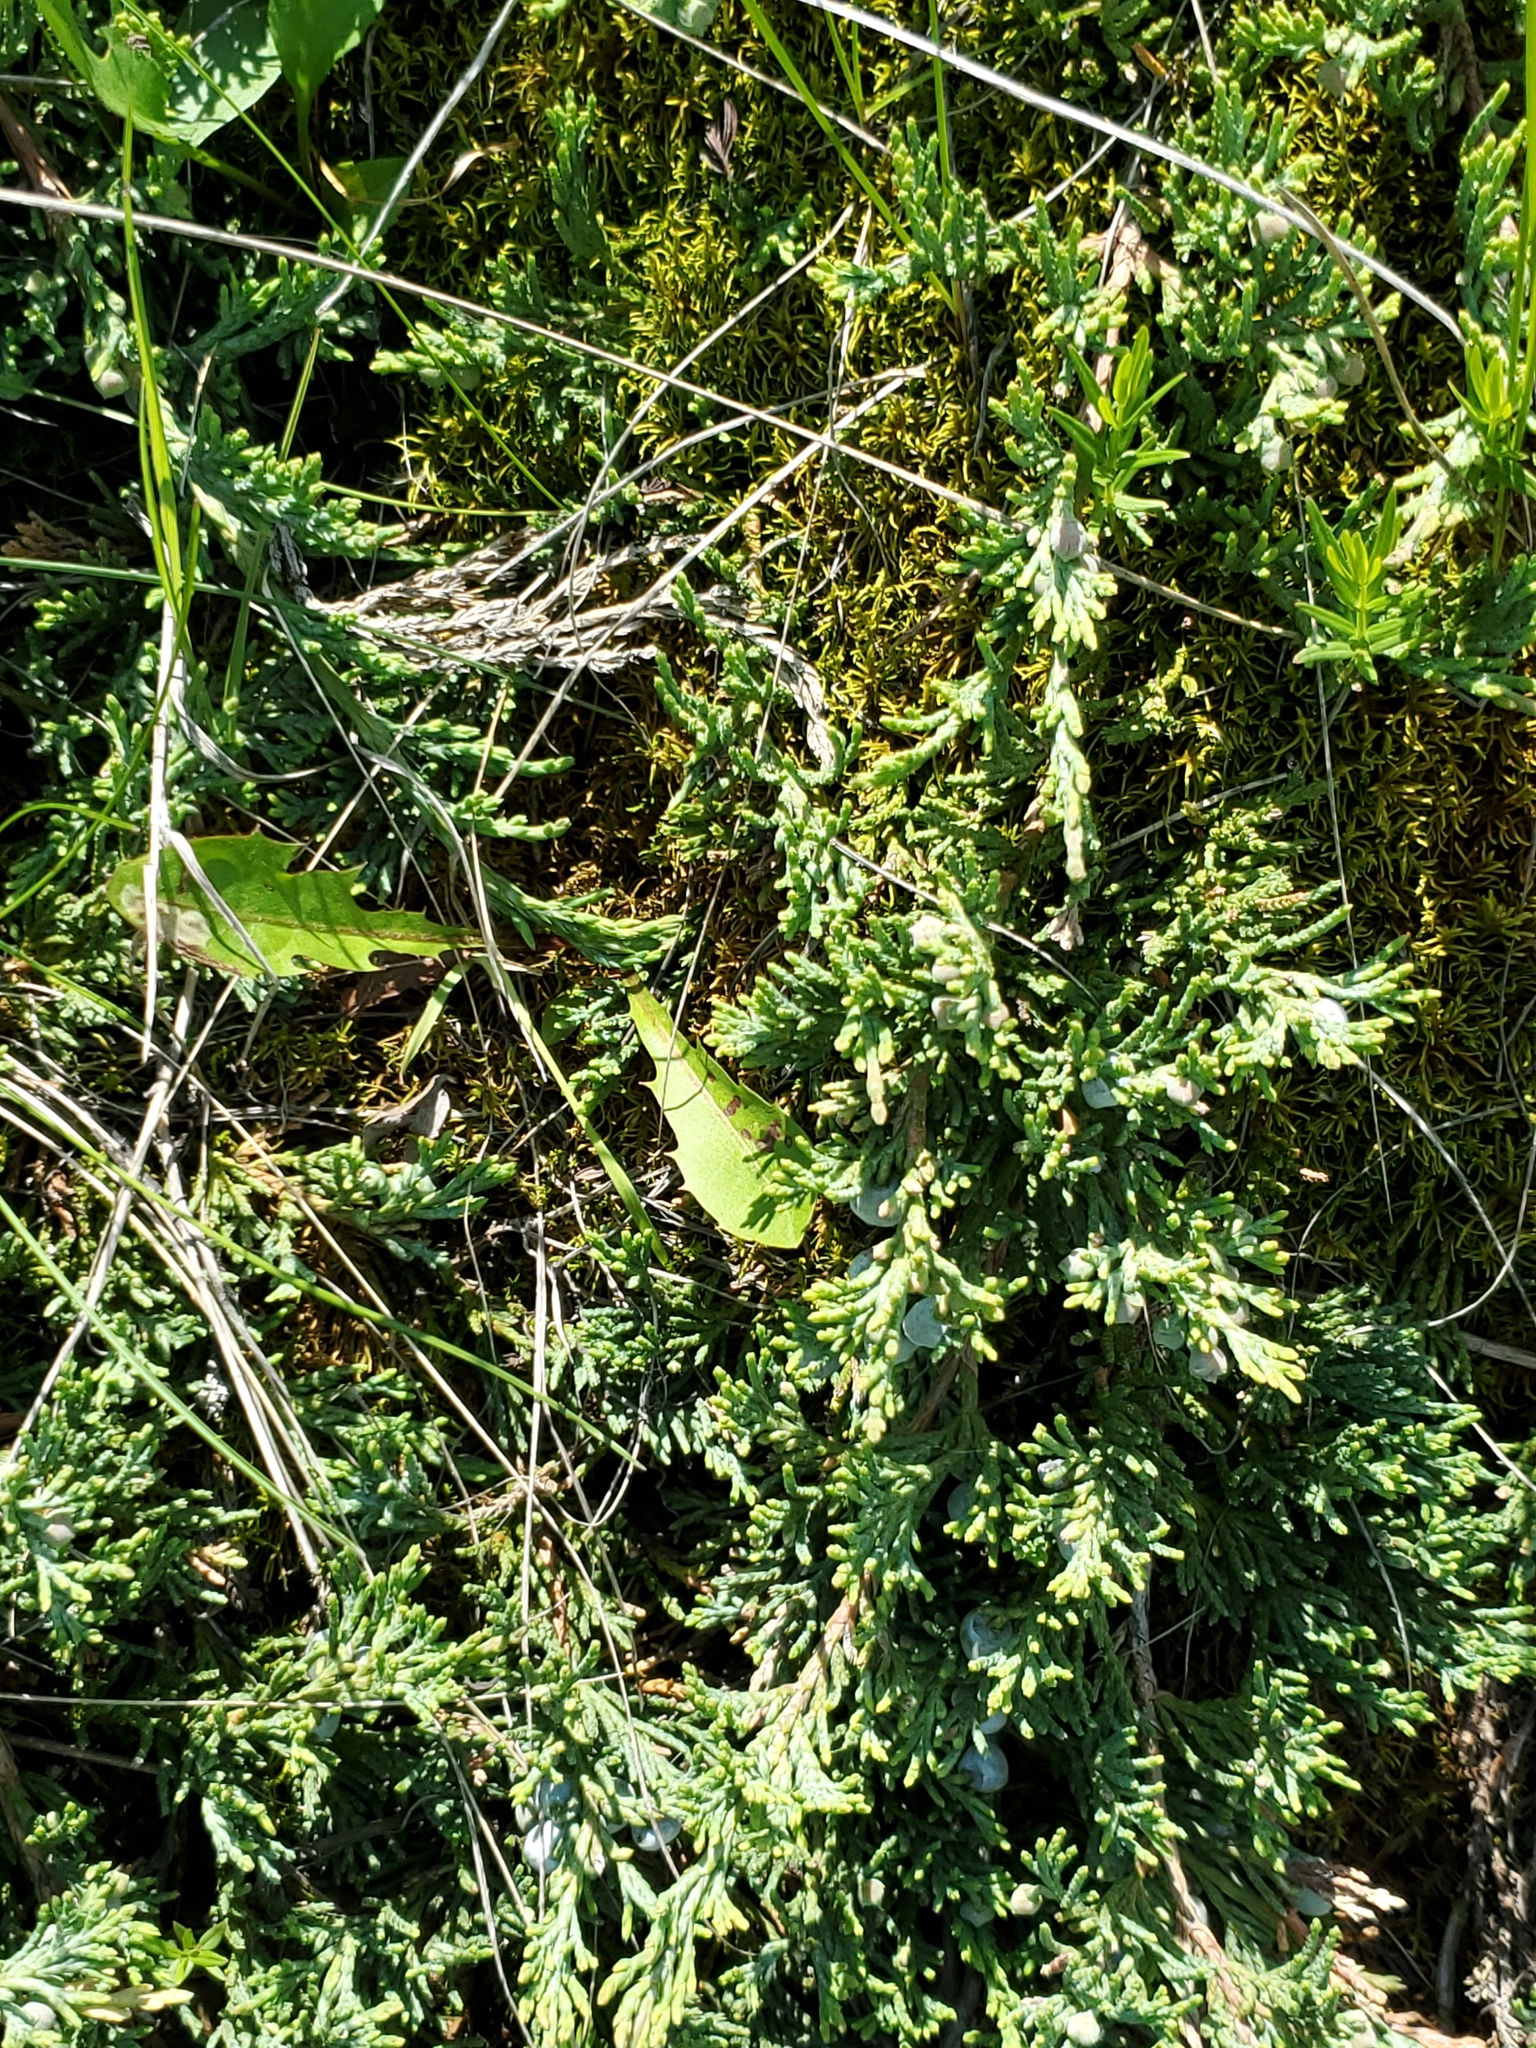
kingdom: Plantae
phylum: Tracheophyta
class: Pinopsida
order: Pinales
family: Cupressaceae
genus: Juniperus
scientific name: Juniperus horizontalis
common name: Creeping juniper
